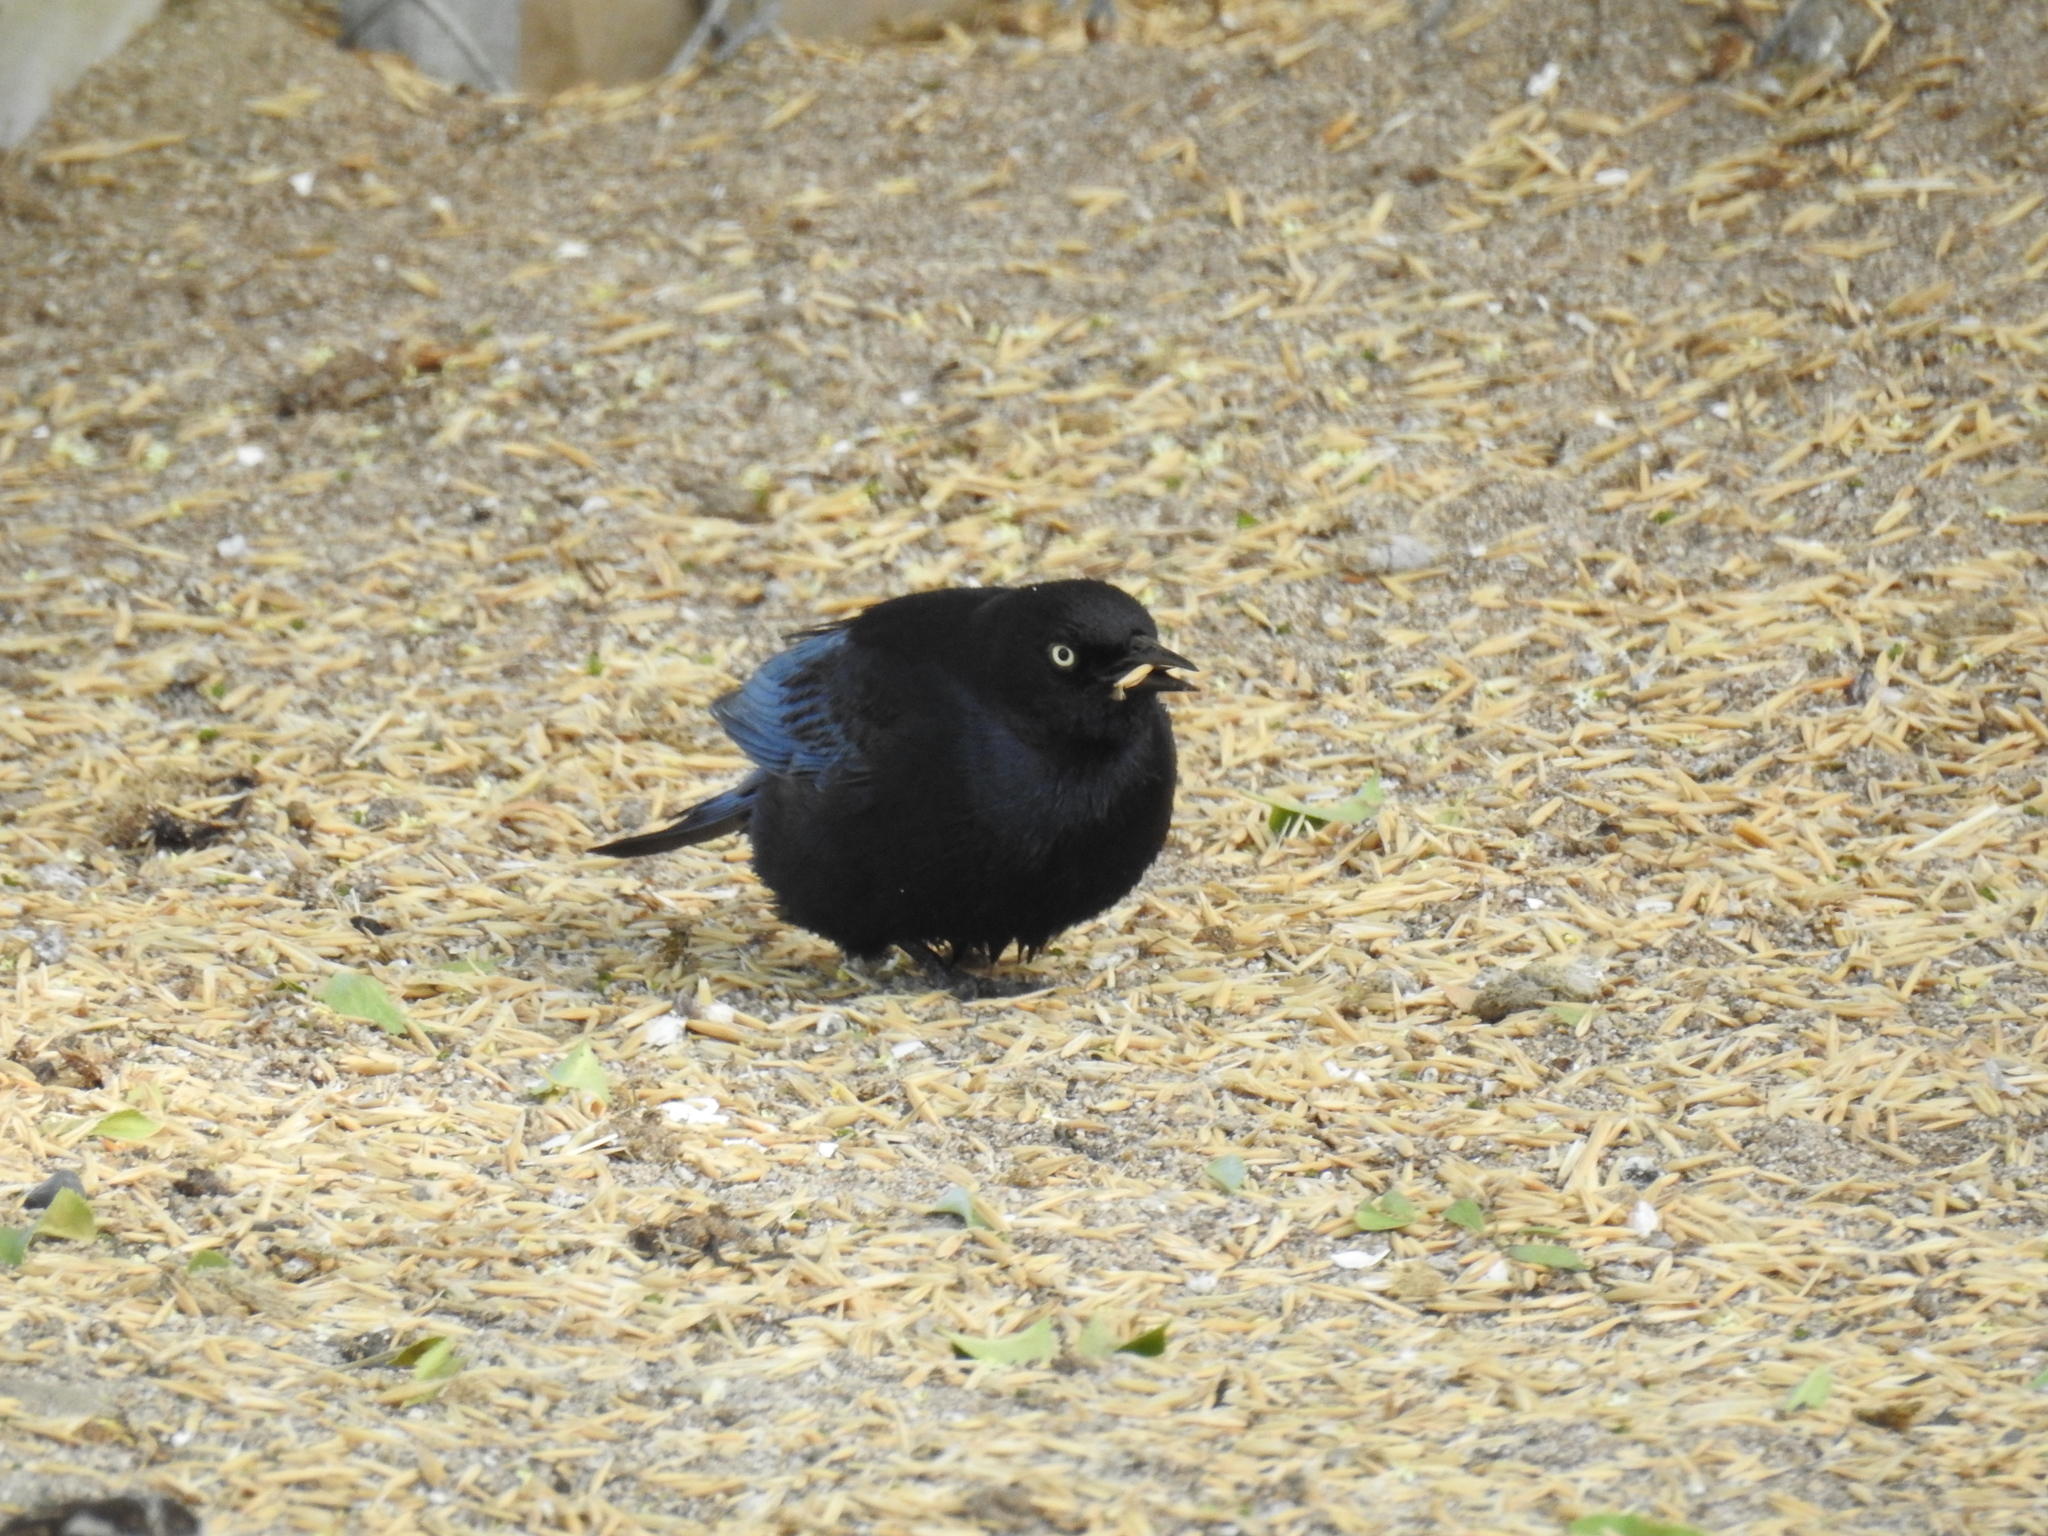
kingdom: Animalia
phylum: Chordata
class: Aves
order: Passeriformes
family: Icteridae
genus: Euphagus
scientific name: Euphagus cyanocephalus
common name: Brewer's blackbird
